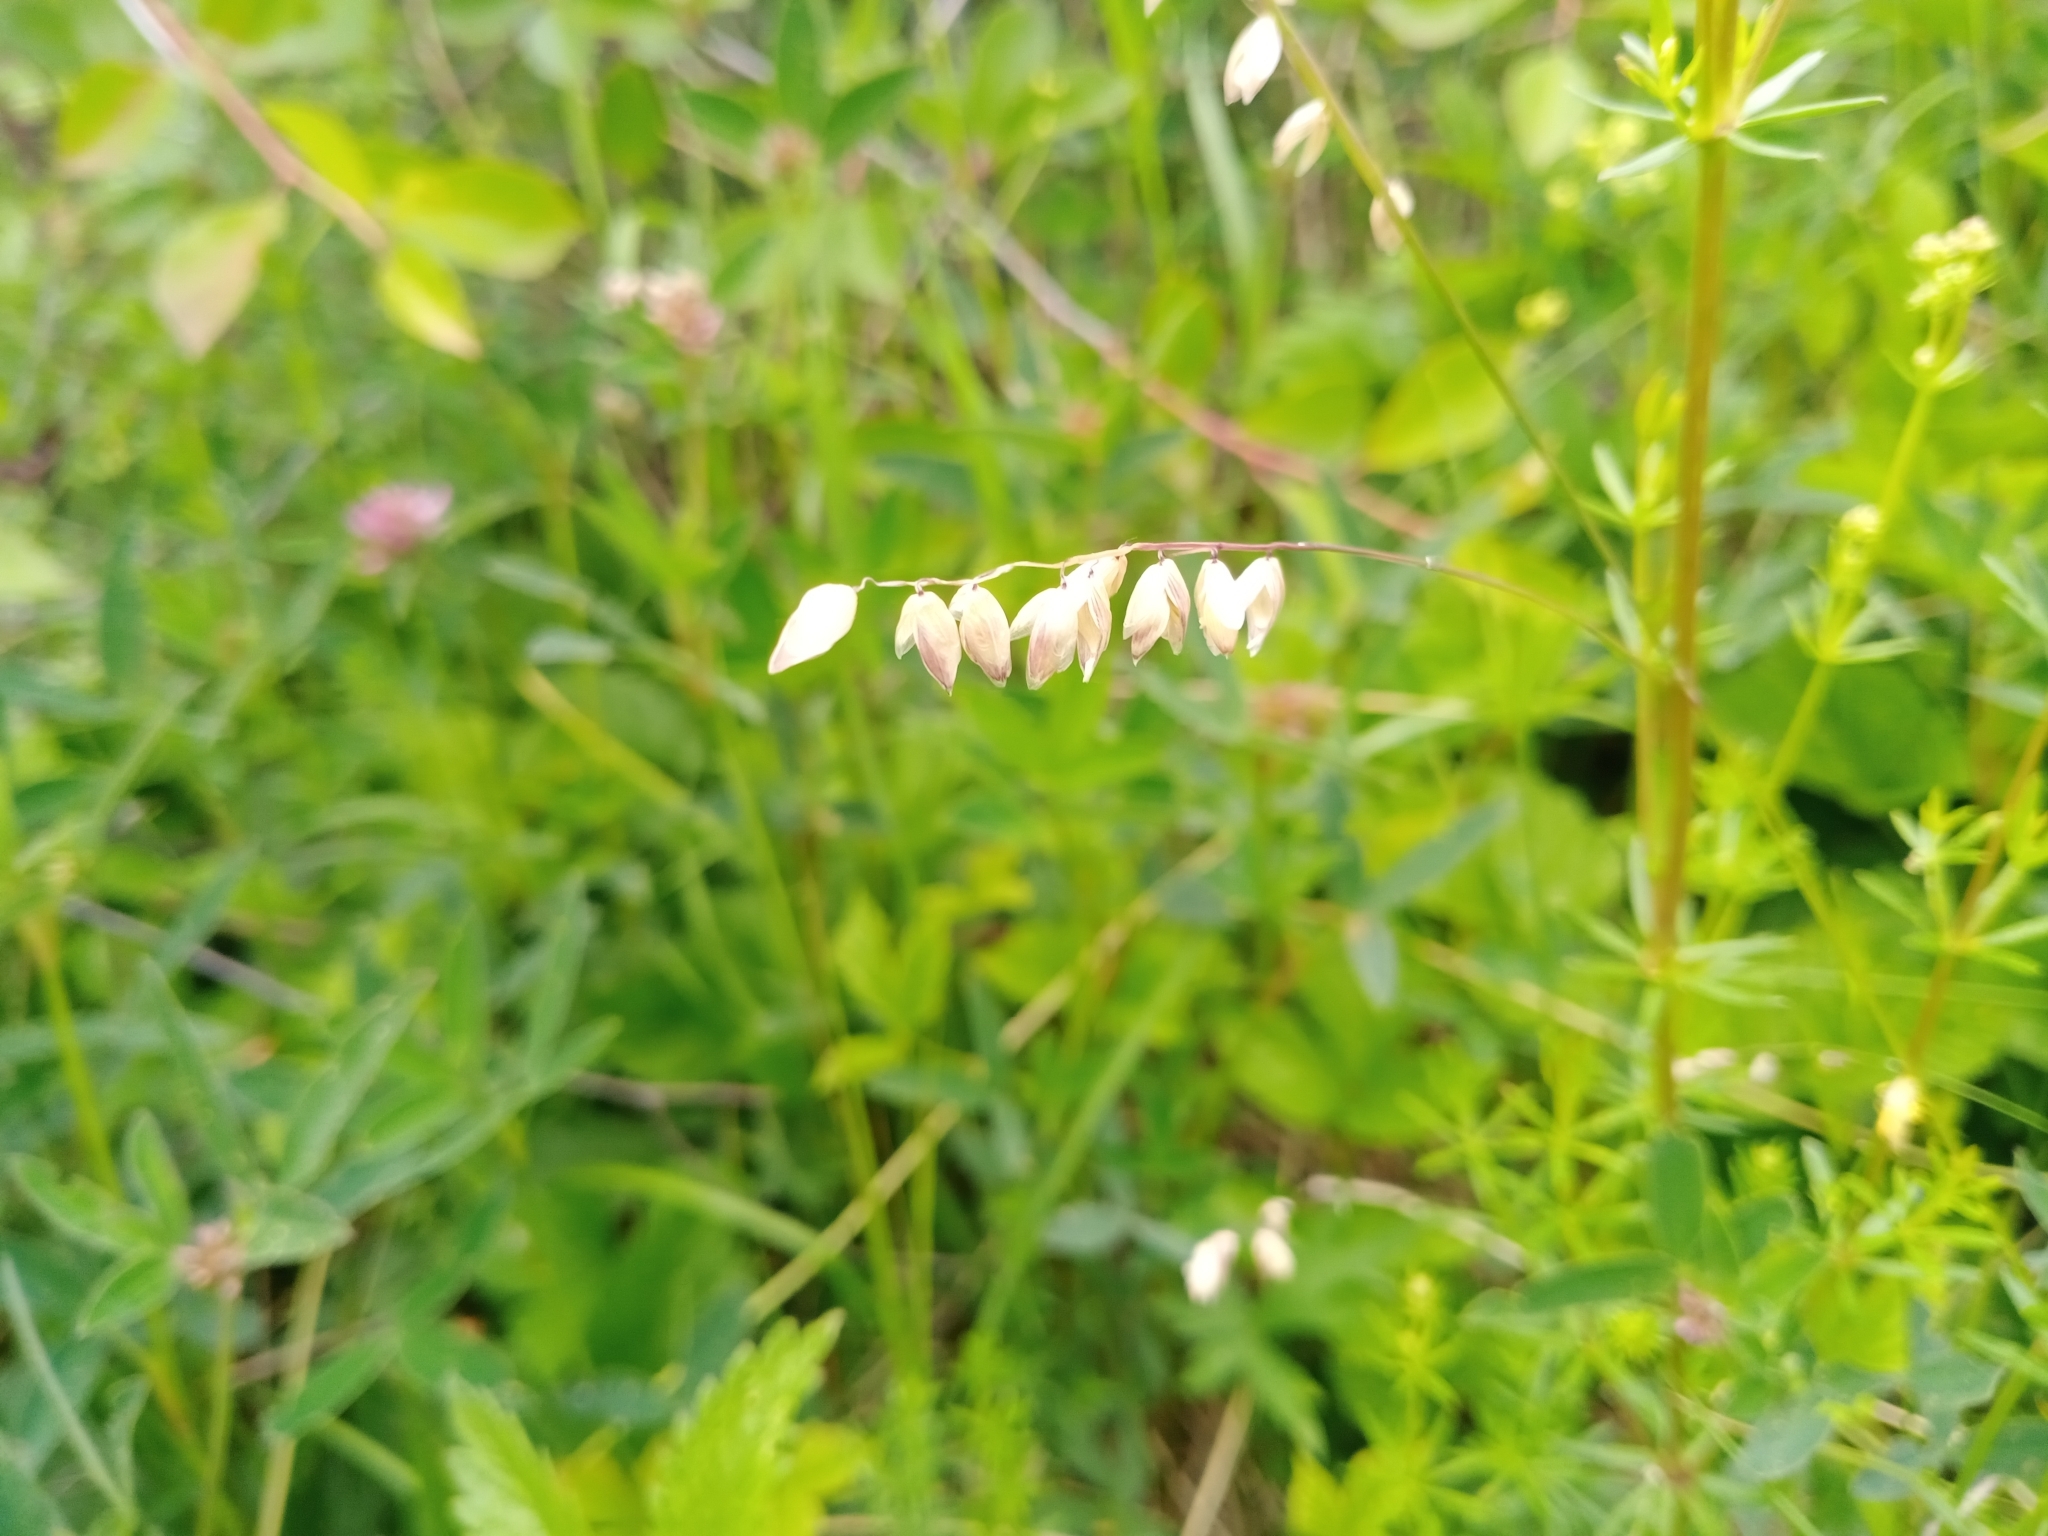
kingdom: Plantae
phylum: Tracheophyta
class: Liliopsida
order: Poales
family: Poaceae
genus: Melica
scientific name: Melica nutans
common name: Mountain melick
